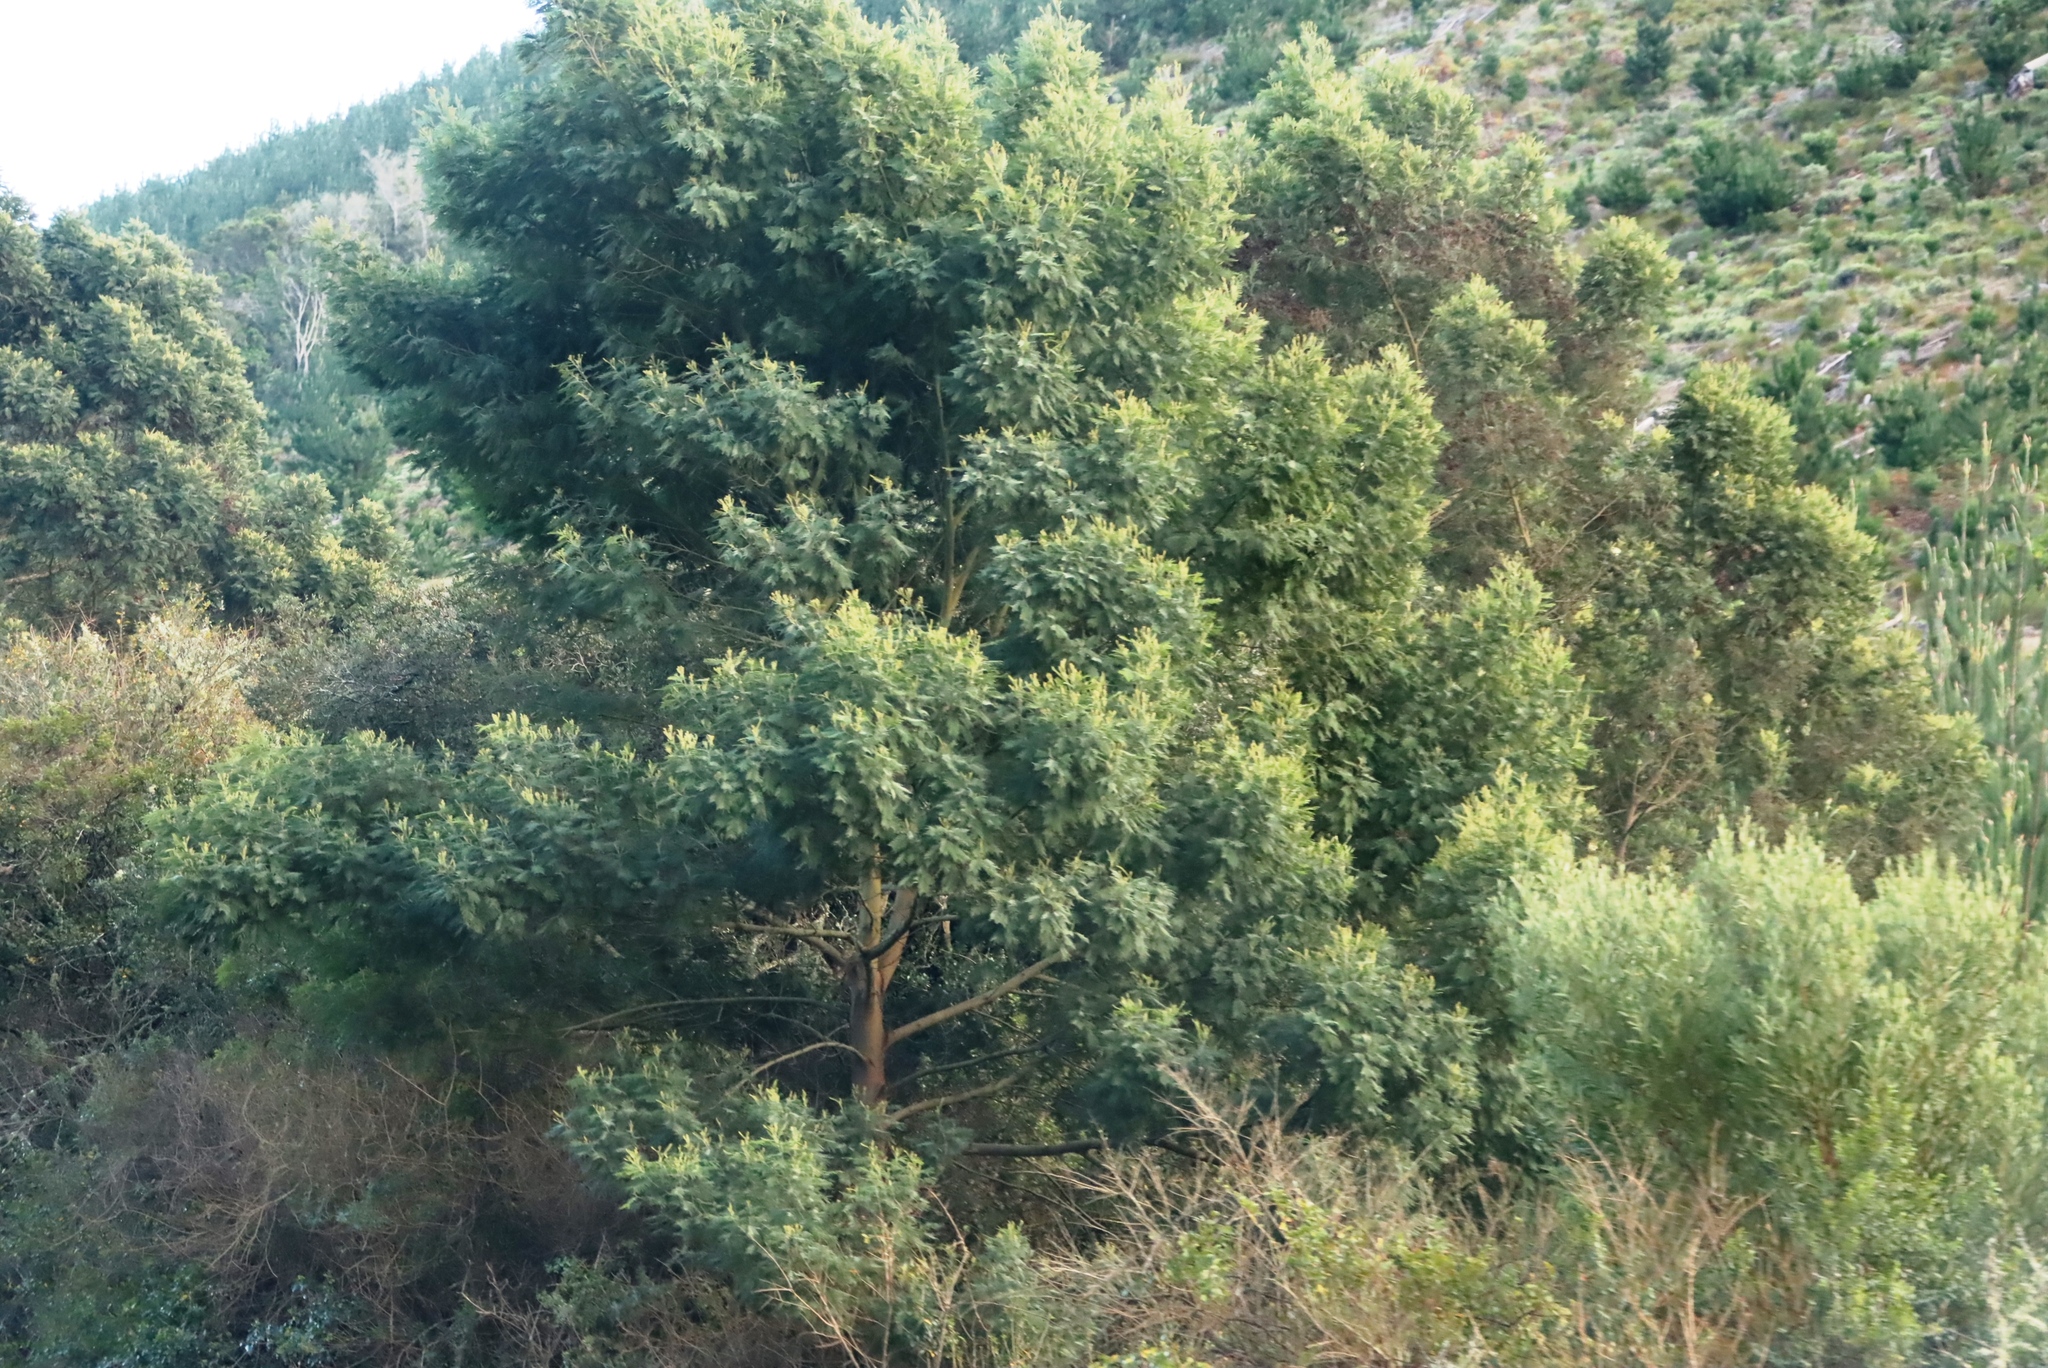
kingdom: Plantae
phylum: Tracheophyta
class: Magnoliopsida
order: Fabales
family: Fabaceae
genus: Acacia
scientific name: Acacia mearnsii
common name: Black wattle
